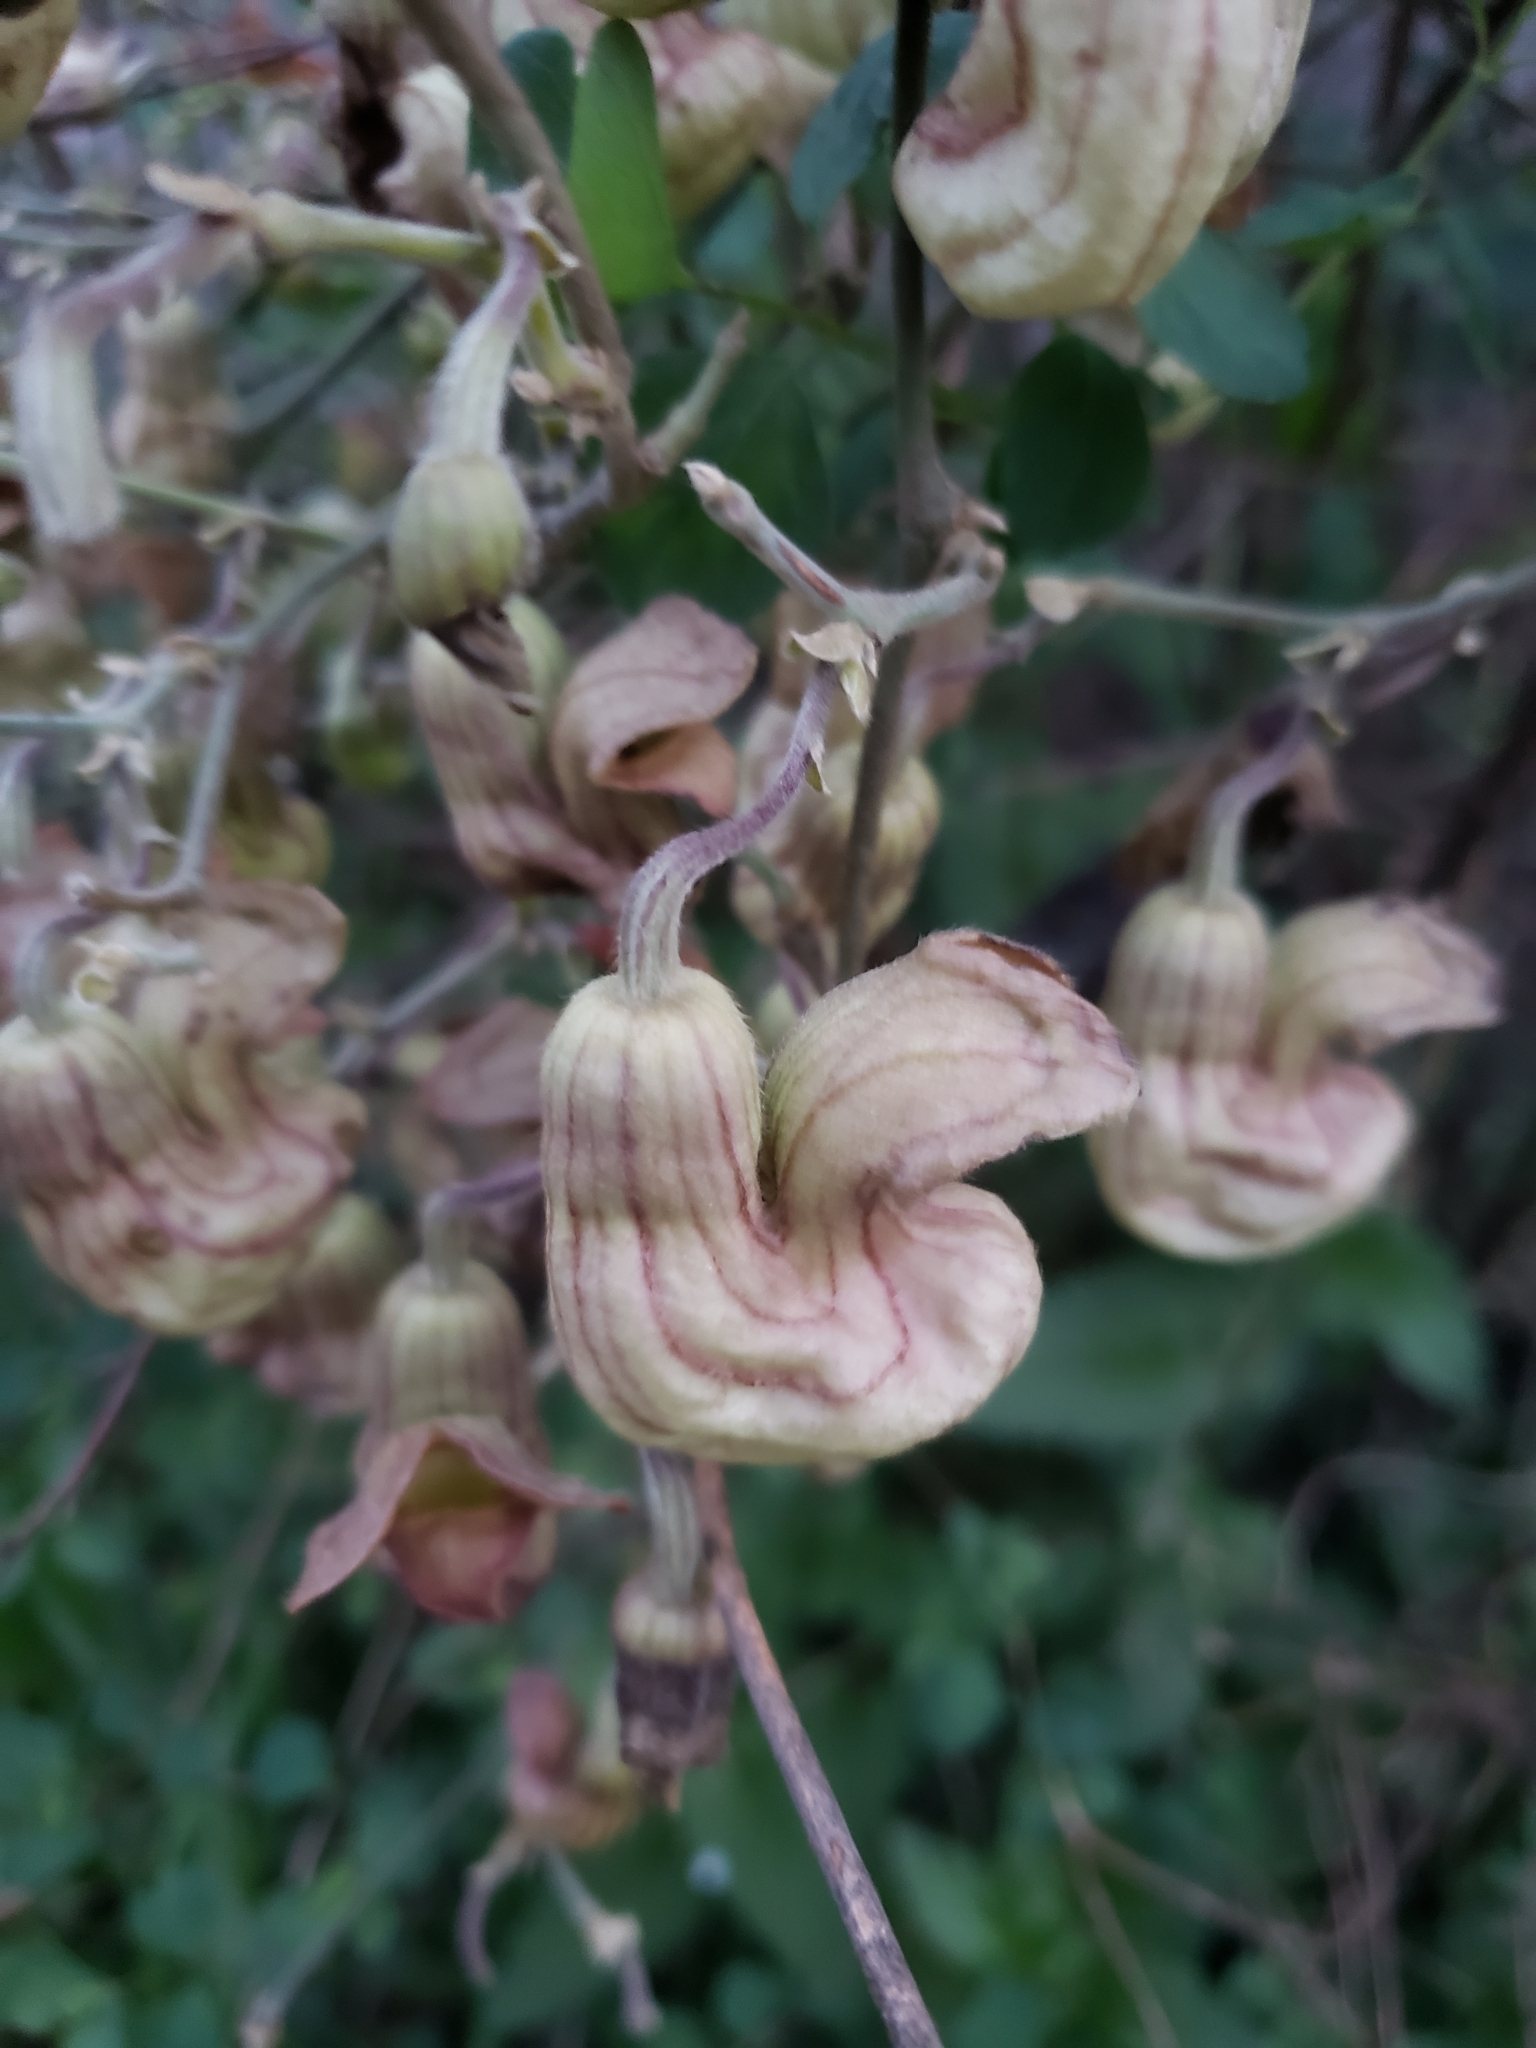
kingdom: Plantae
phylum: Tracheophyta
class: Magnoliopsida
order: Piperales
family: Aristolochiaceae
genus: Isotrema
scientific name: Isotrema californicum
